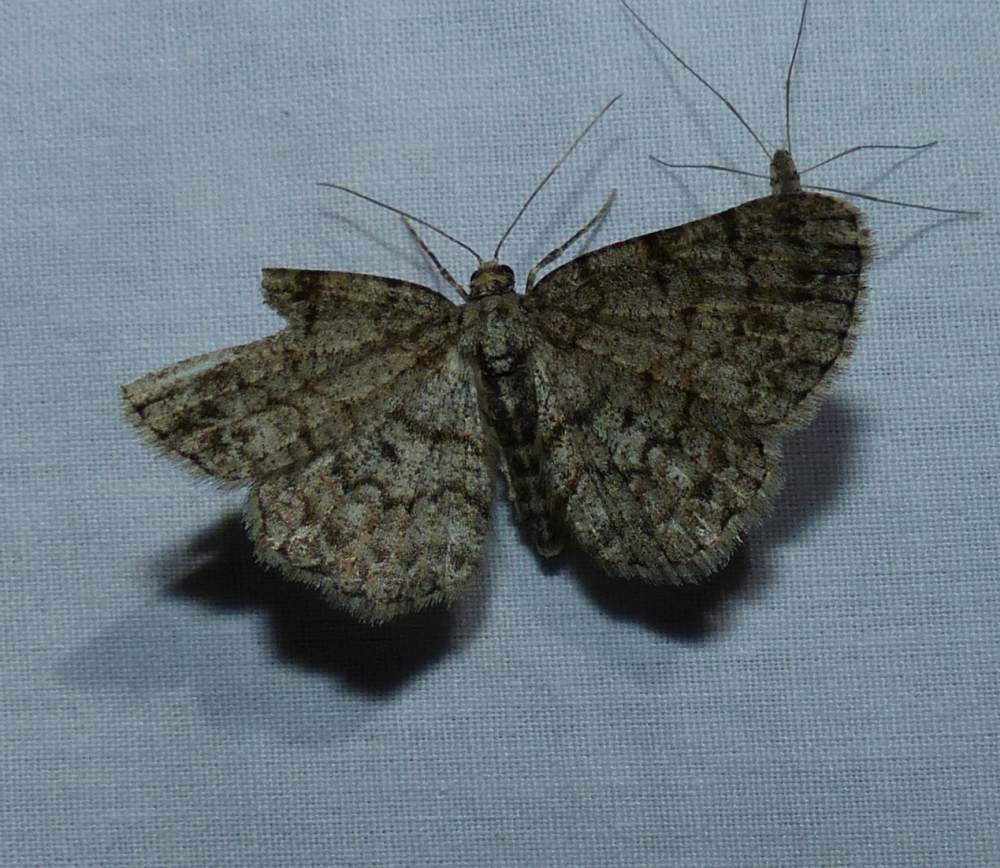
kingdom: Animalia
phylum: Arthropoda
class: Insecta
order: Lepidoptera
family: Geometridae
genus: Protoboarmia
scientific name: Protoboarmia porcelaria
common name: Porcelain gray
